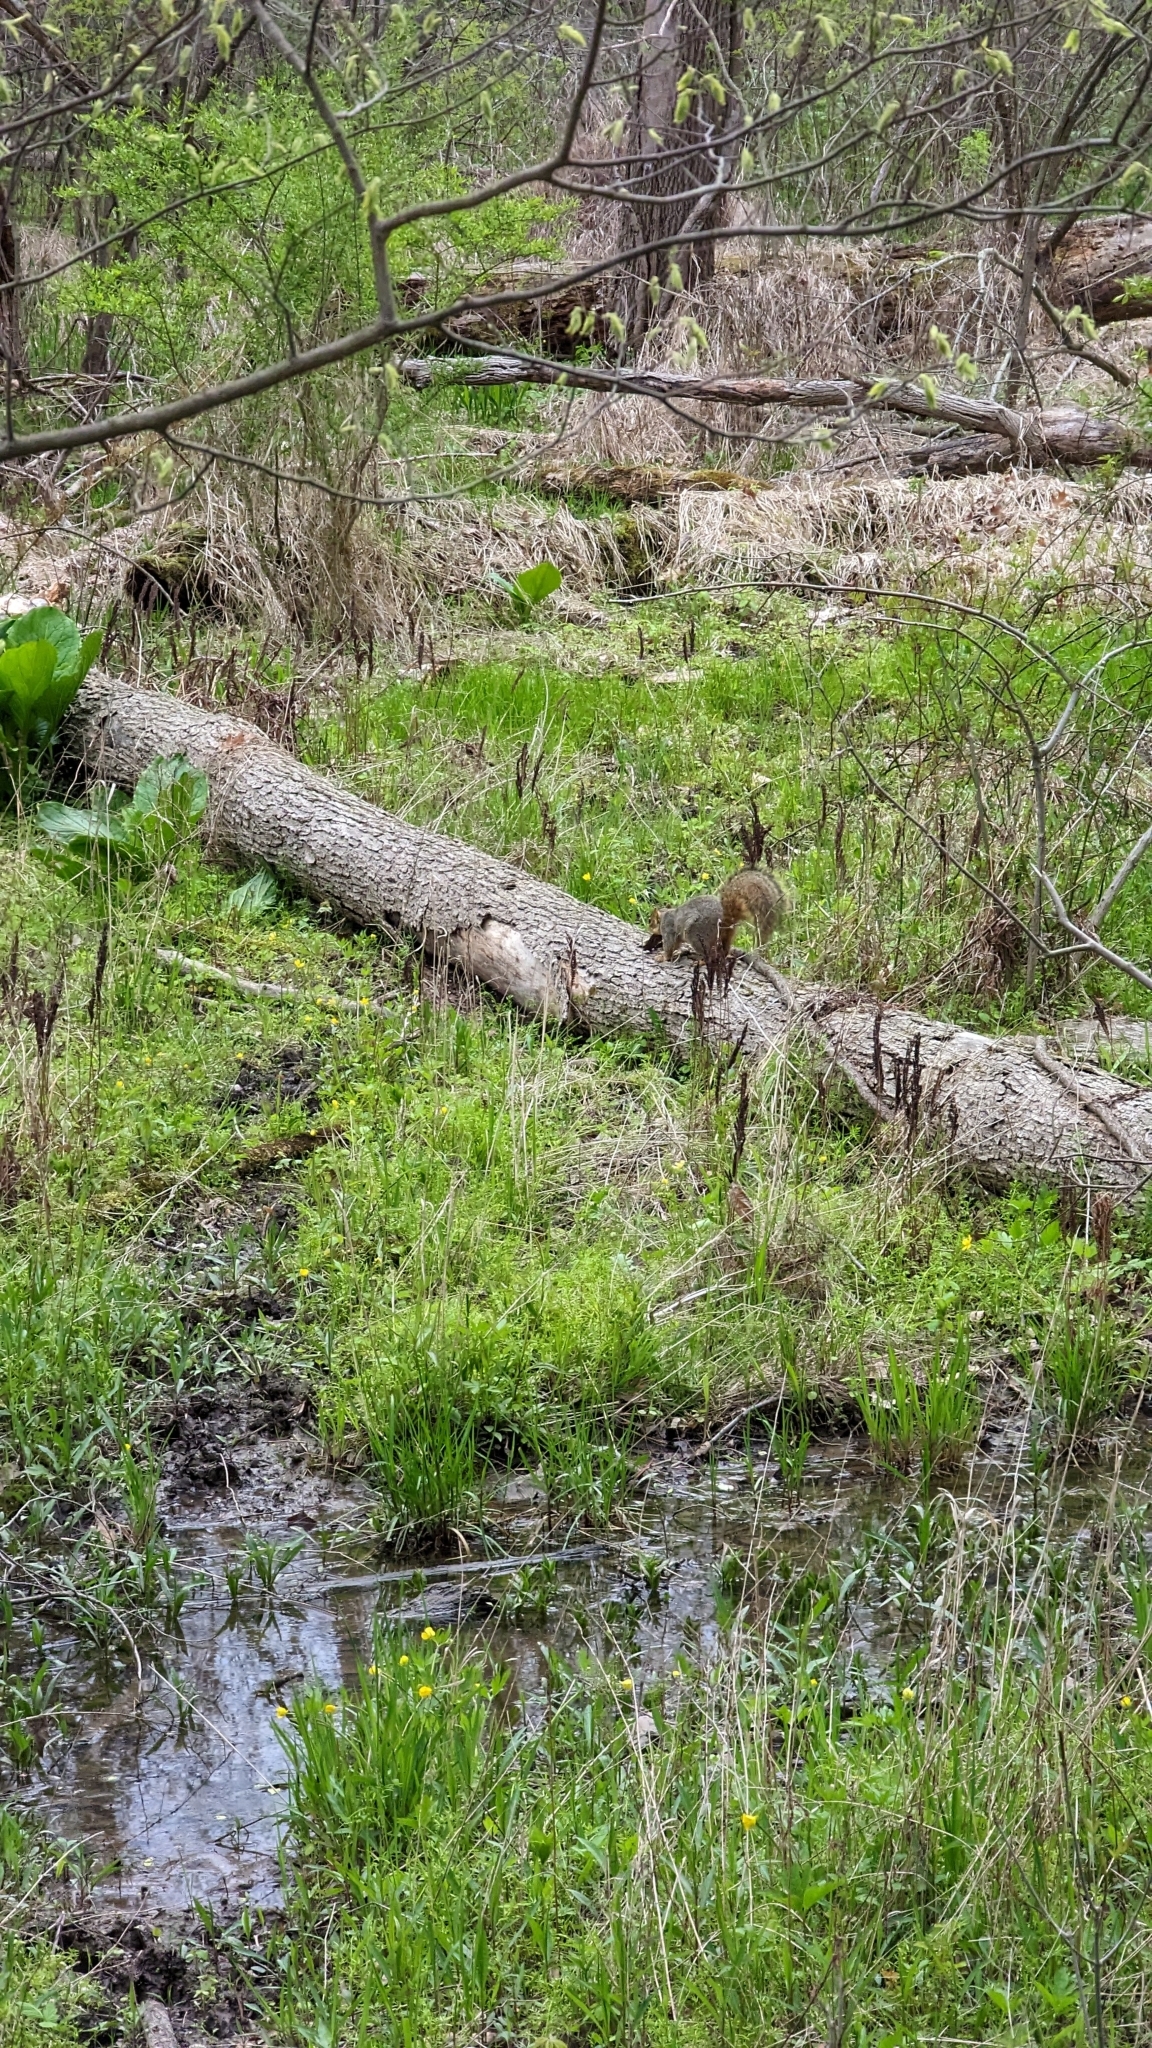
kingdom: Animalia
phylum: Chordata
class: Mammalia
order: Rodentia
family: Sciuridae
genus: Sciurus
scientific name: Sciurus niger
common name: Fox squirrel
